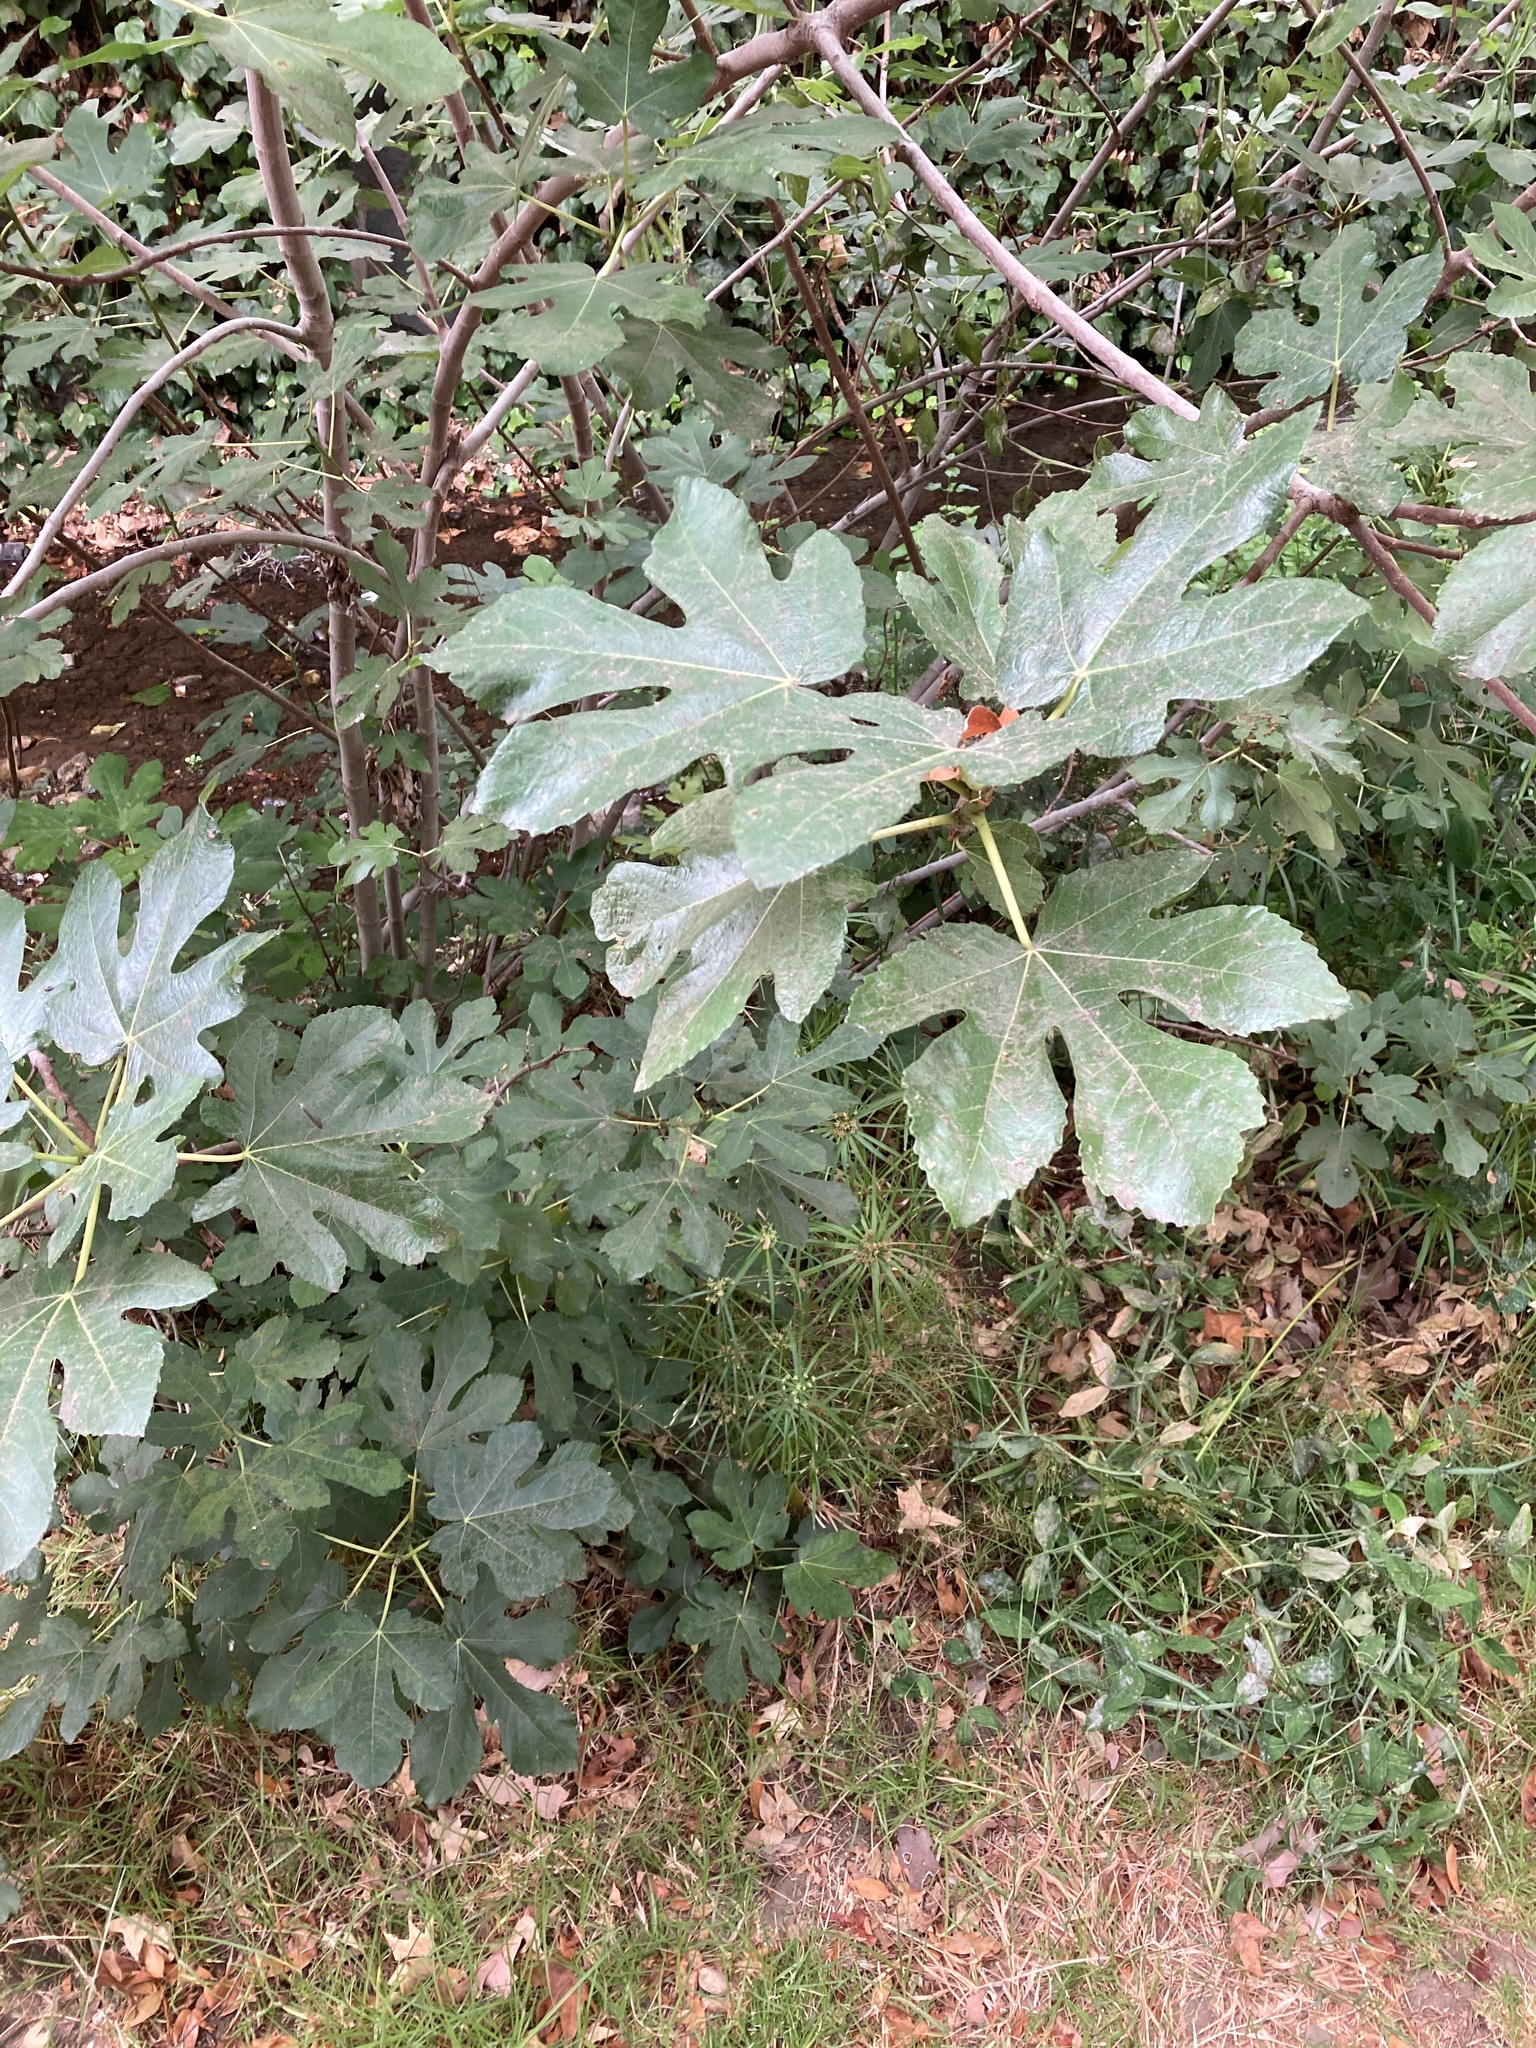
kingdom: Plantae
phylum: Tracheophyta
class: Magnoliopsida
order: Rosales
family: Moraceae
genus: Ficus
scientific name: Ficus carica
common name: Fig
